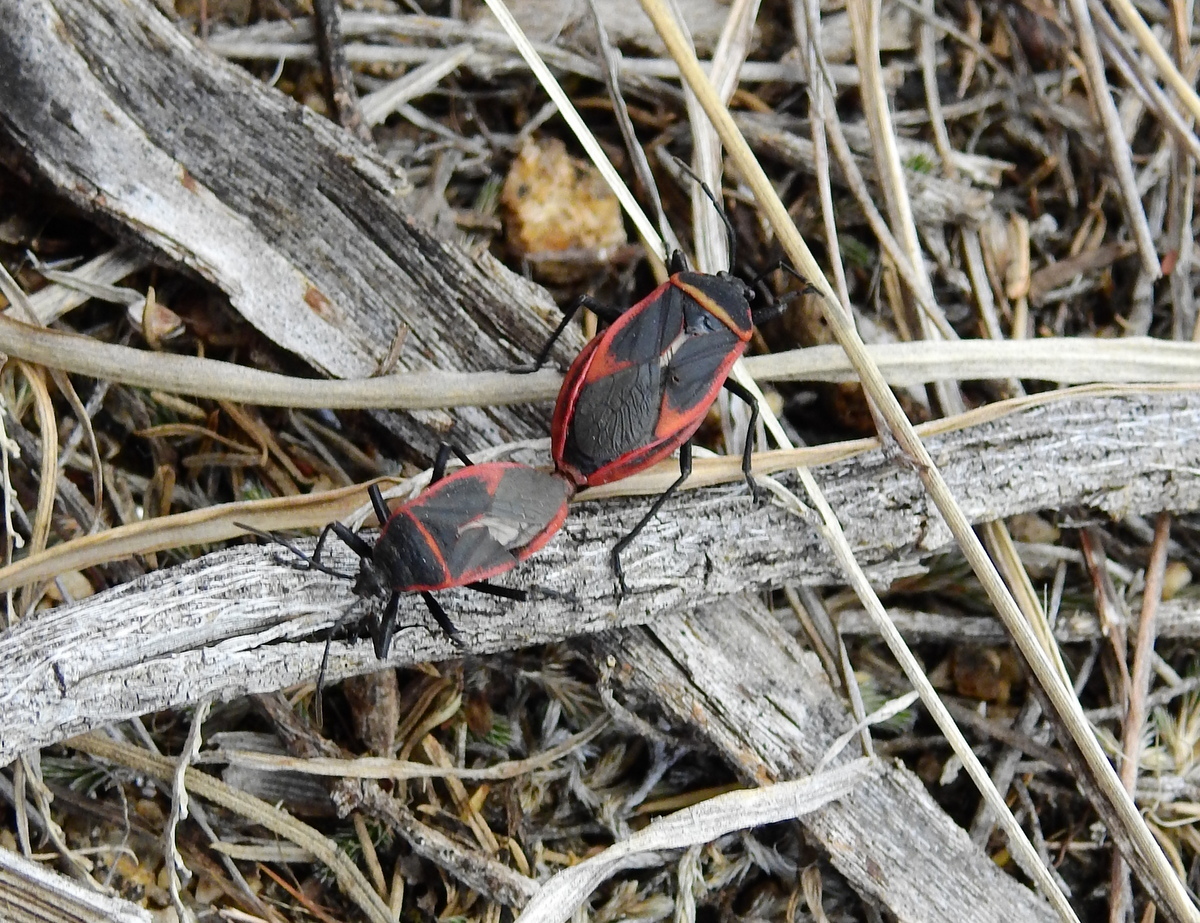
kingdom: Animalia
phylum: Arthropoda
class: Insecta
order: Hemiptera
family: Largidae
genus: Largus
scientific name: Largus rufipennis
